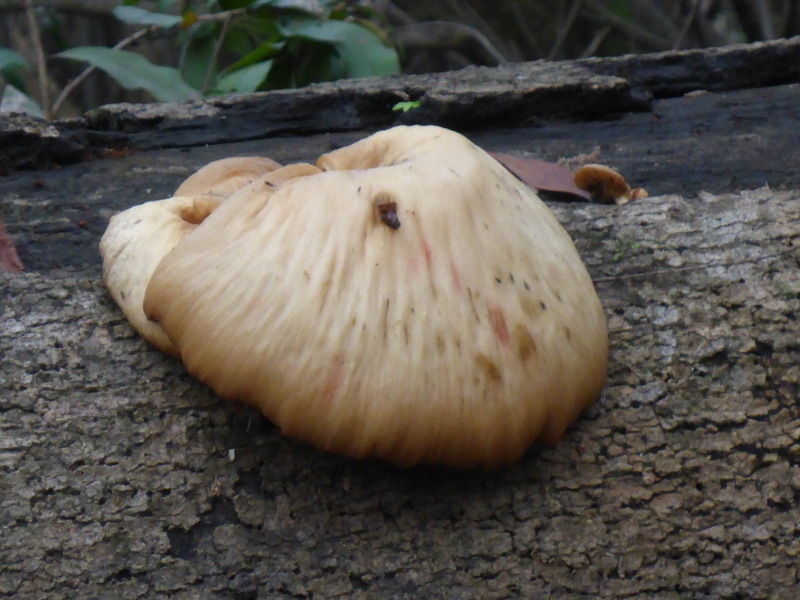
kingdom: Fungi
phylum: Basidiomycota
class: Agaricomycetes
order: Agaricales
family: Pleurotaceae
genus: Pleurotus
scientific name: Pleurotus ostreatus
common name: Oyster mushroom
